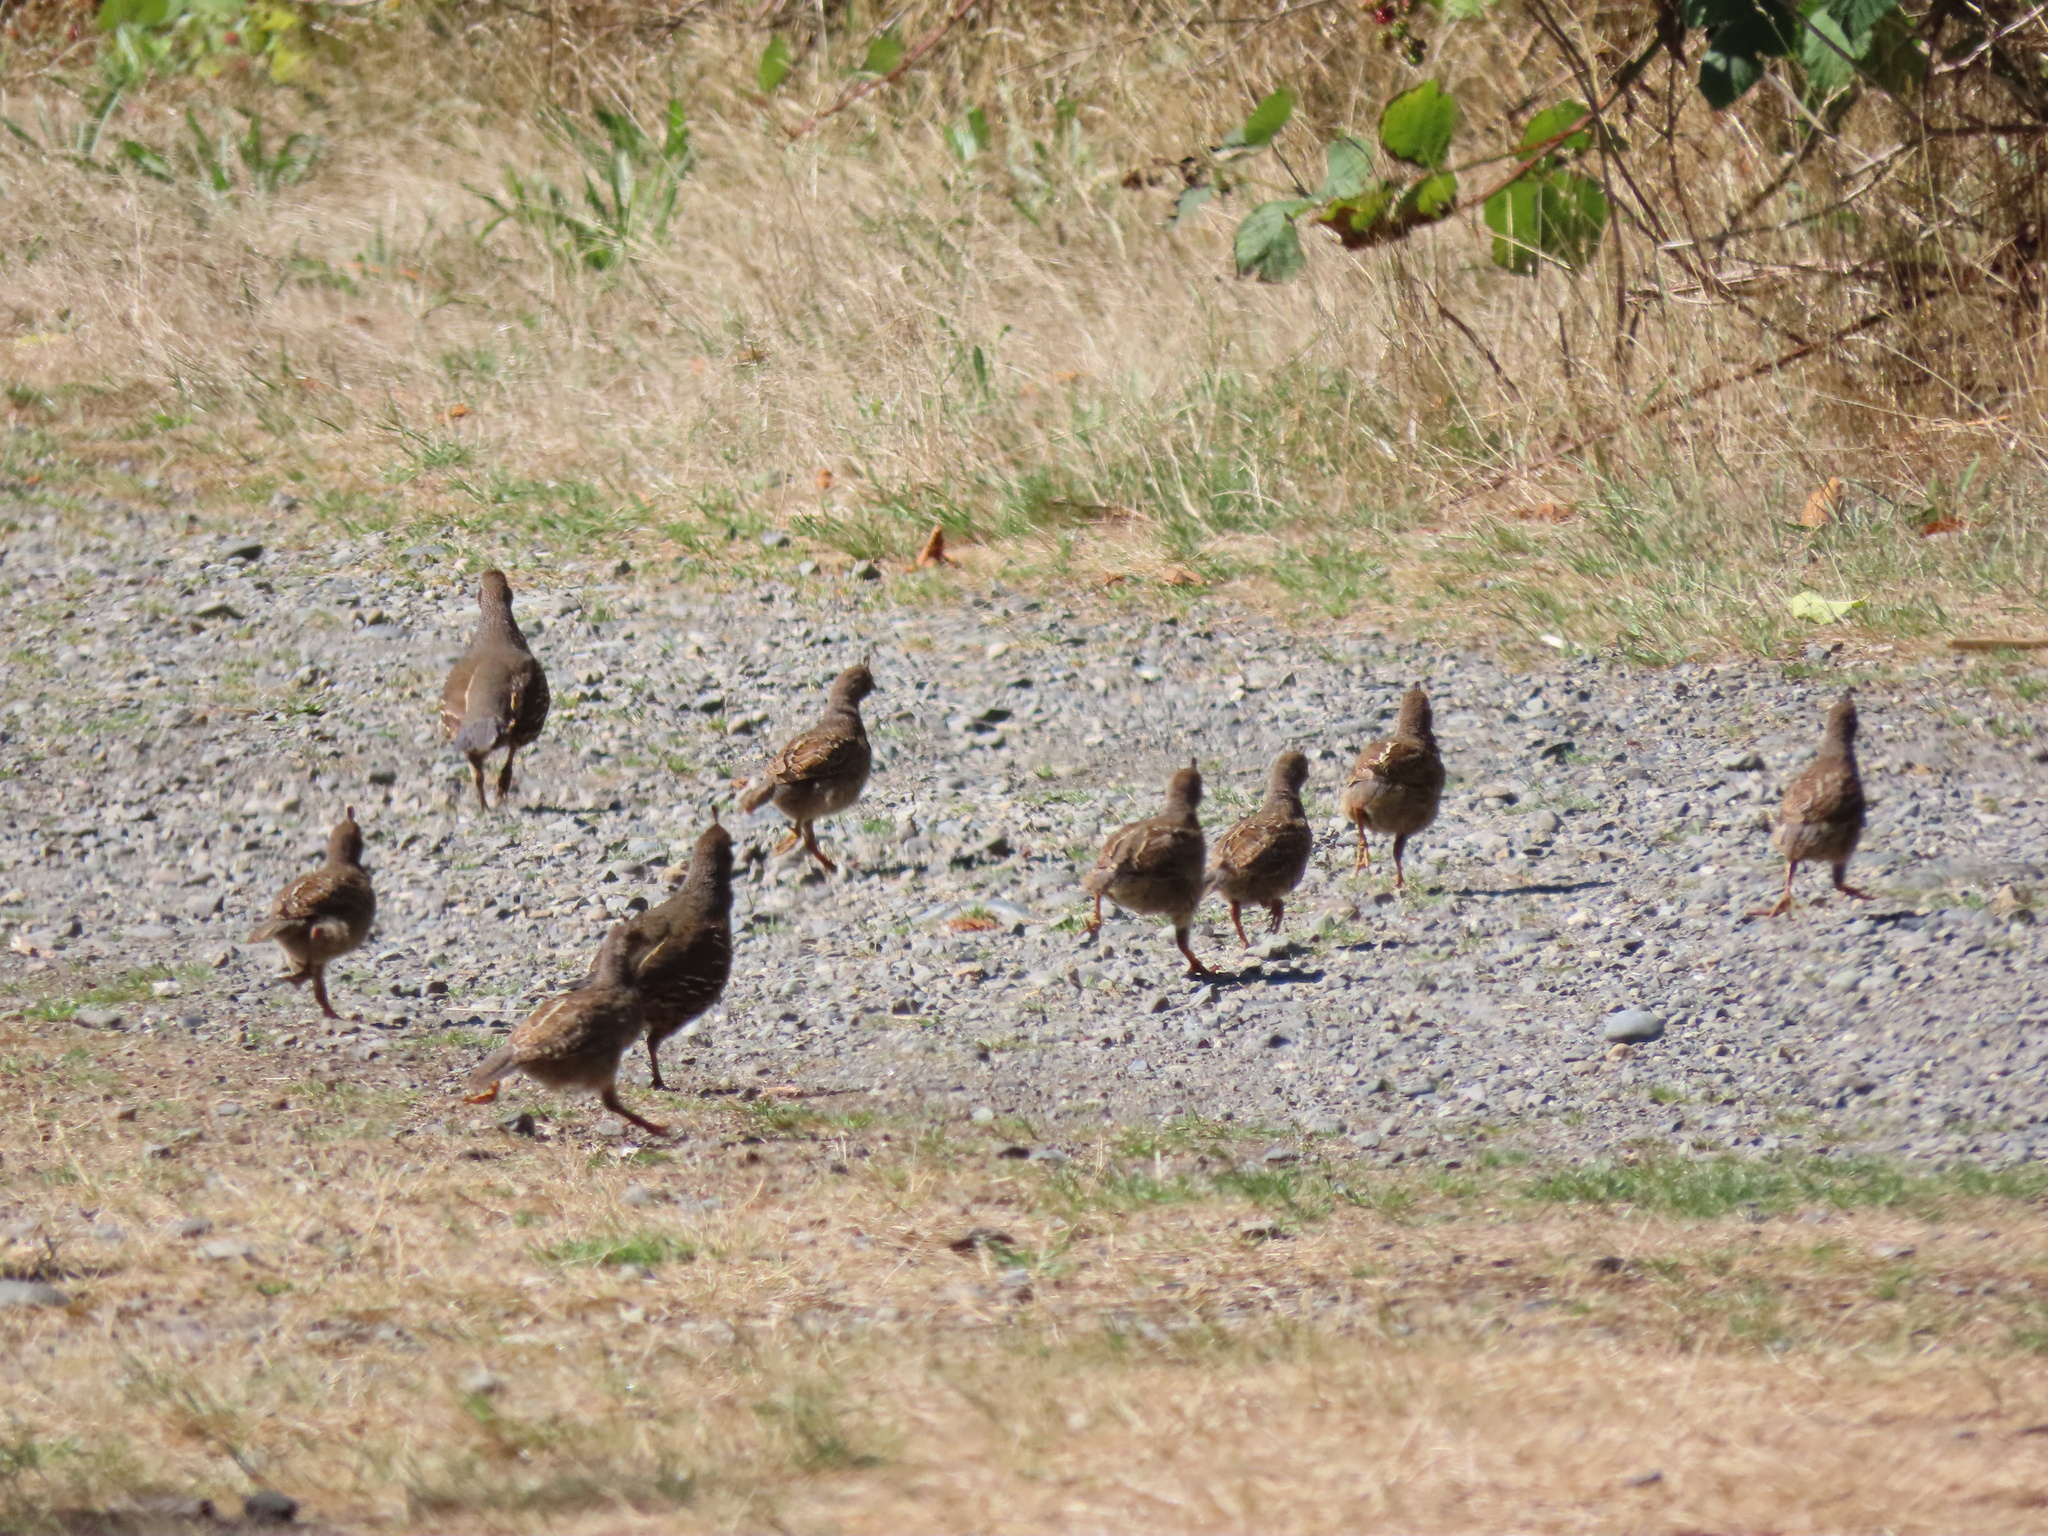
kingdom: Animalia
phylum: Chordata
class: Aves
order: Galliformes
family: Odontophoridae
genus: Callipepla
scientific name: Callipepla californica
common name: California quail
